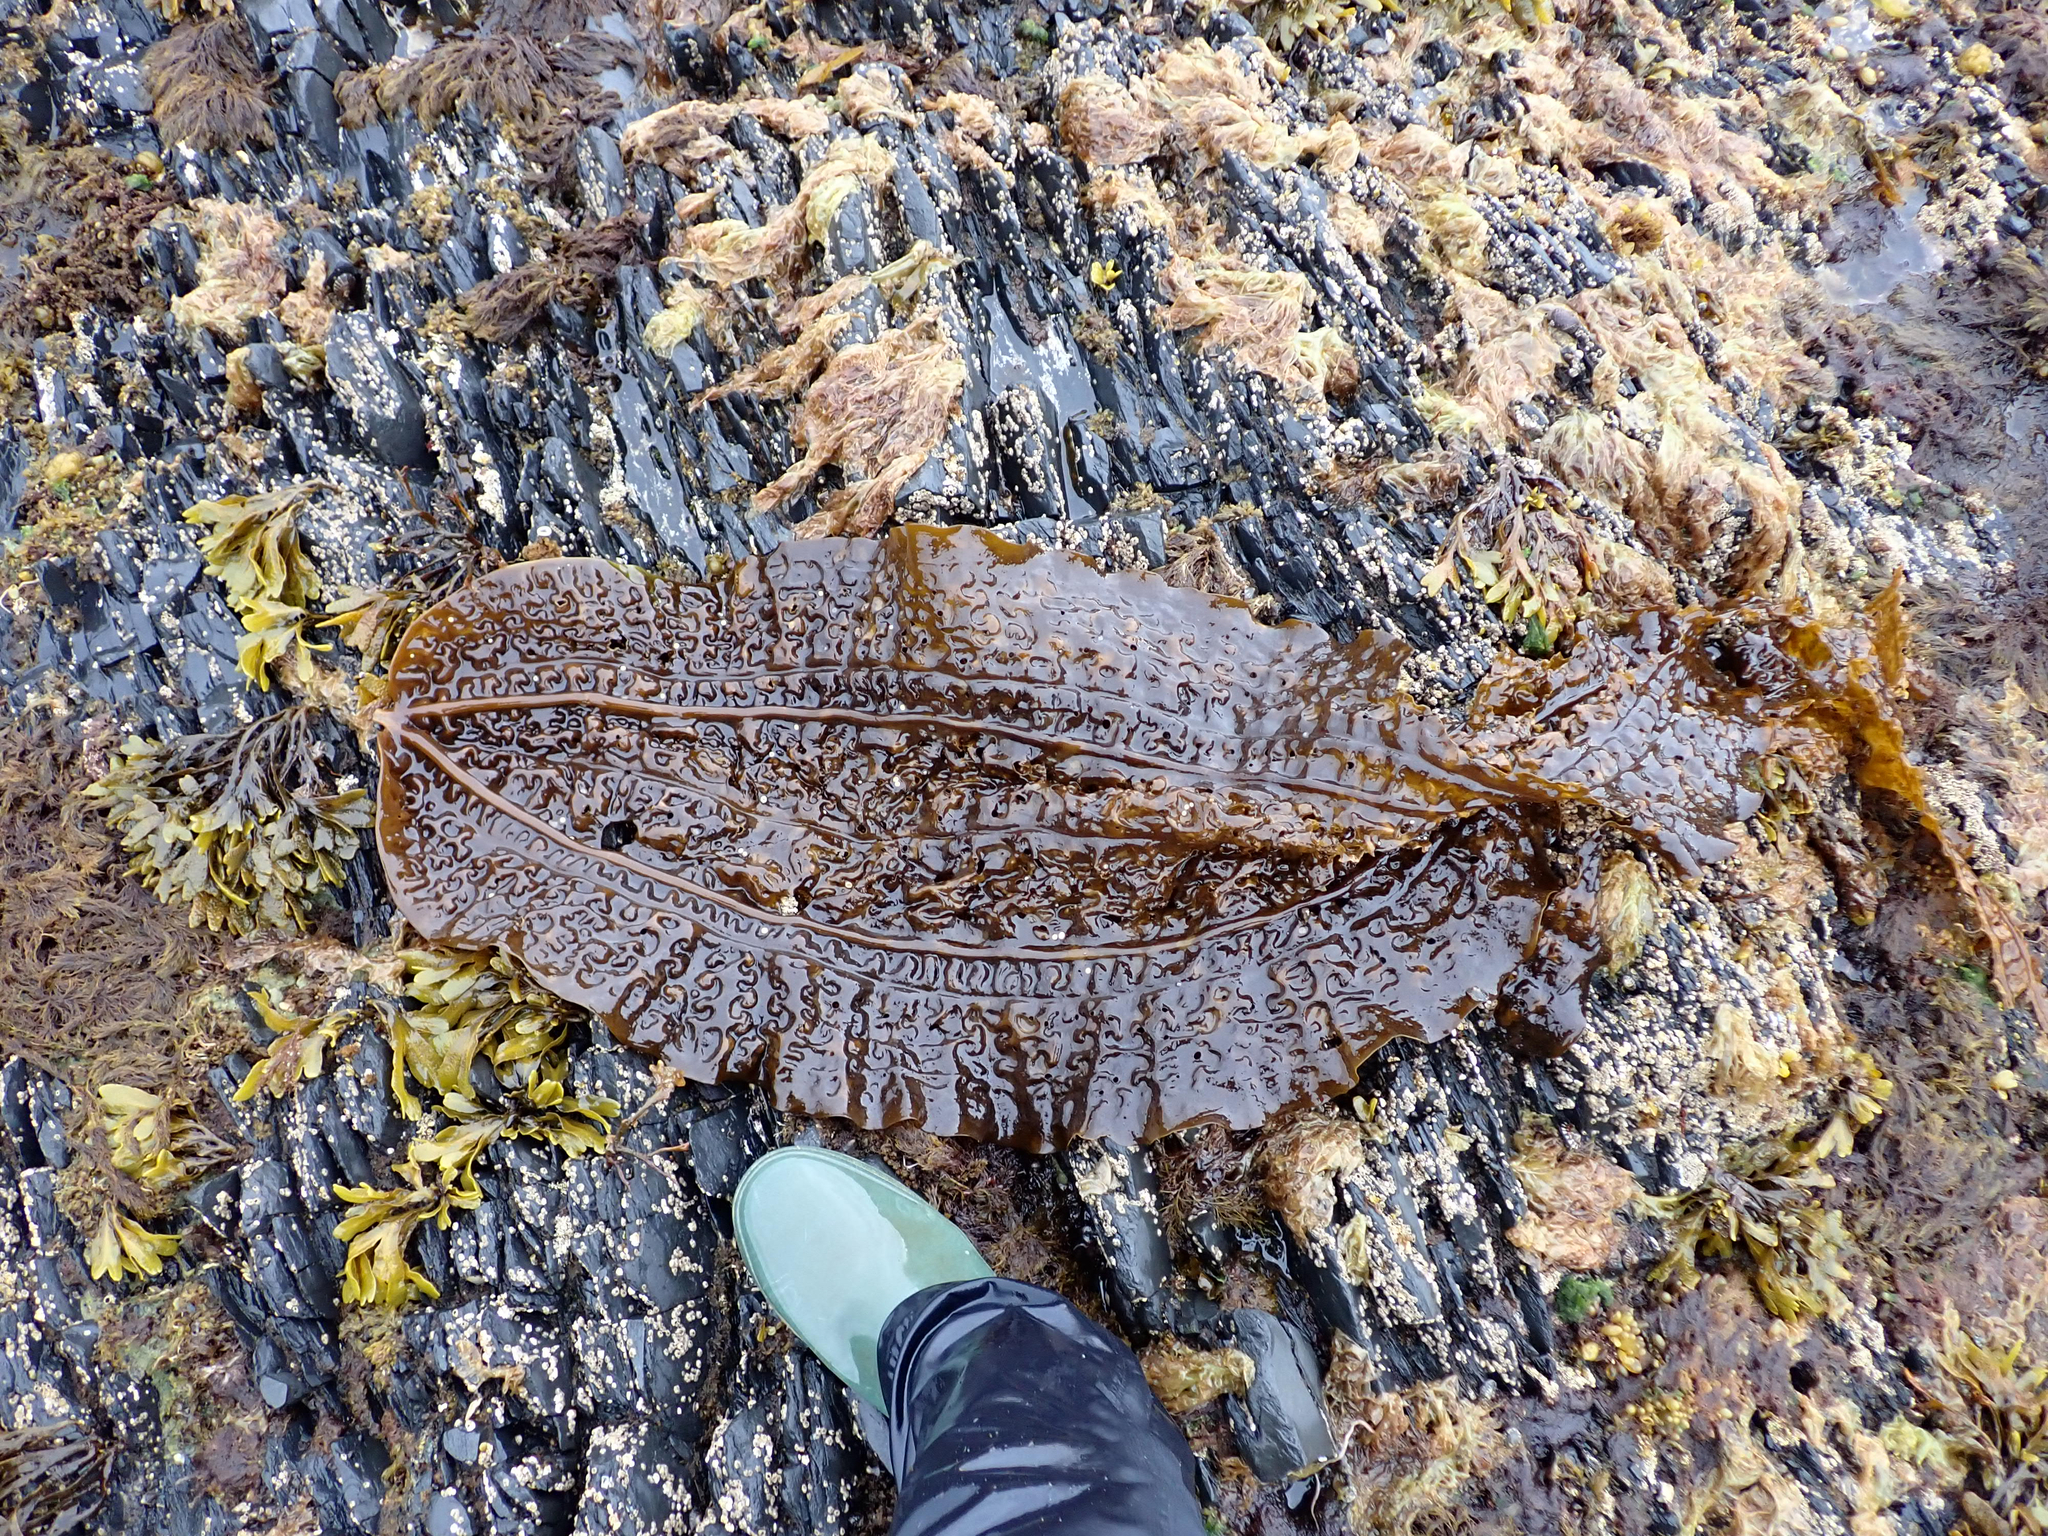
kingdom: Chromista
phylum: Ochrophyta
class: Phaeophyceae
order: Laminariales
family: Costariaceae
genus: Costaria
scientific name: Costaria costata
